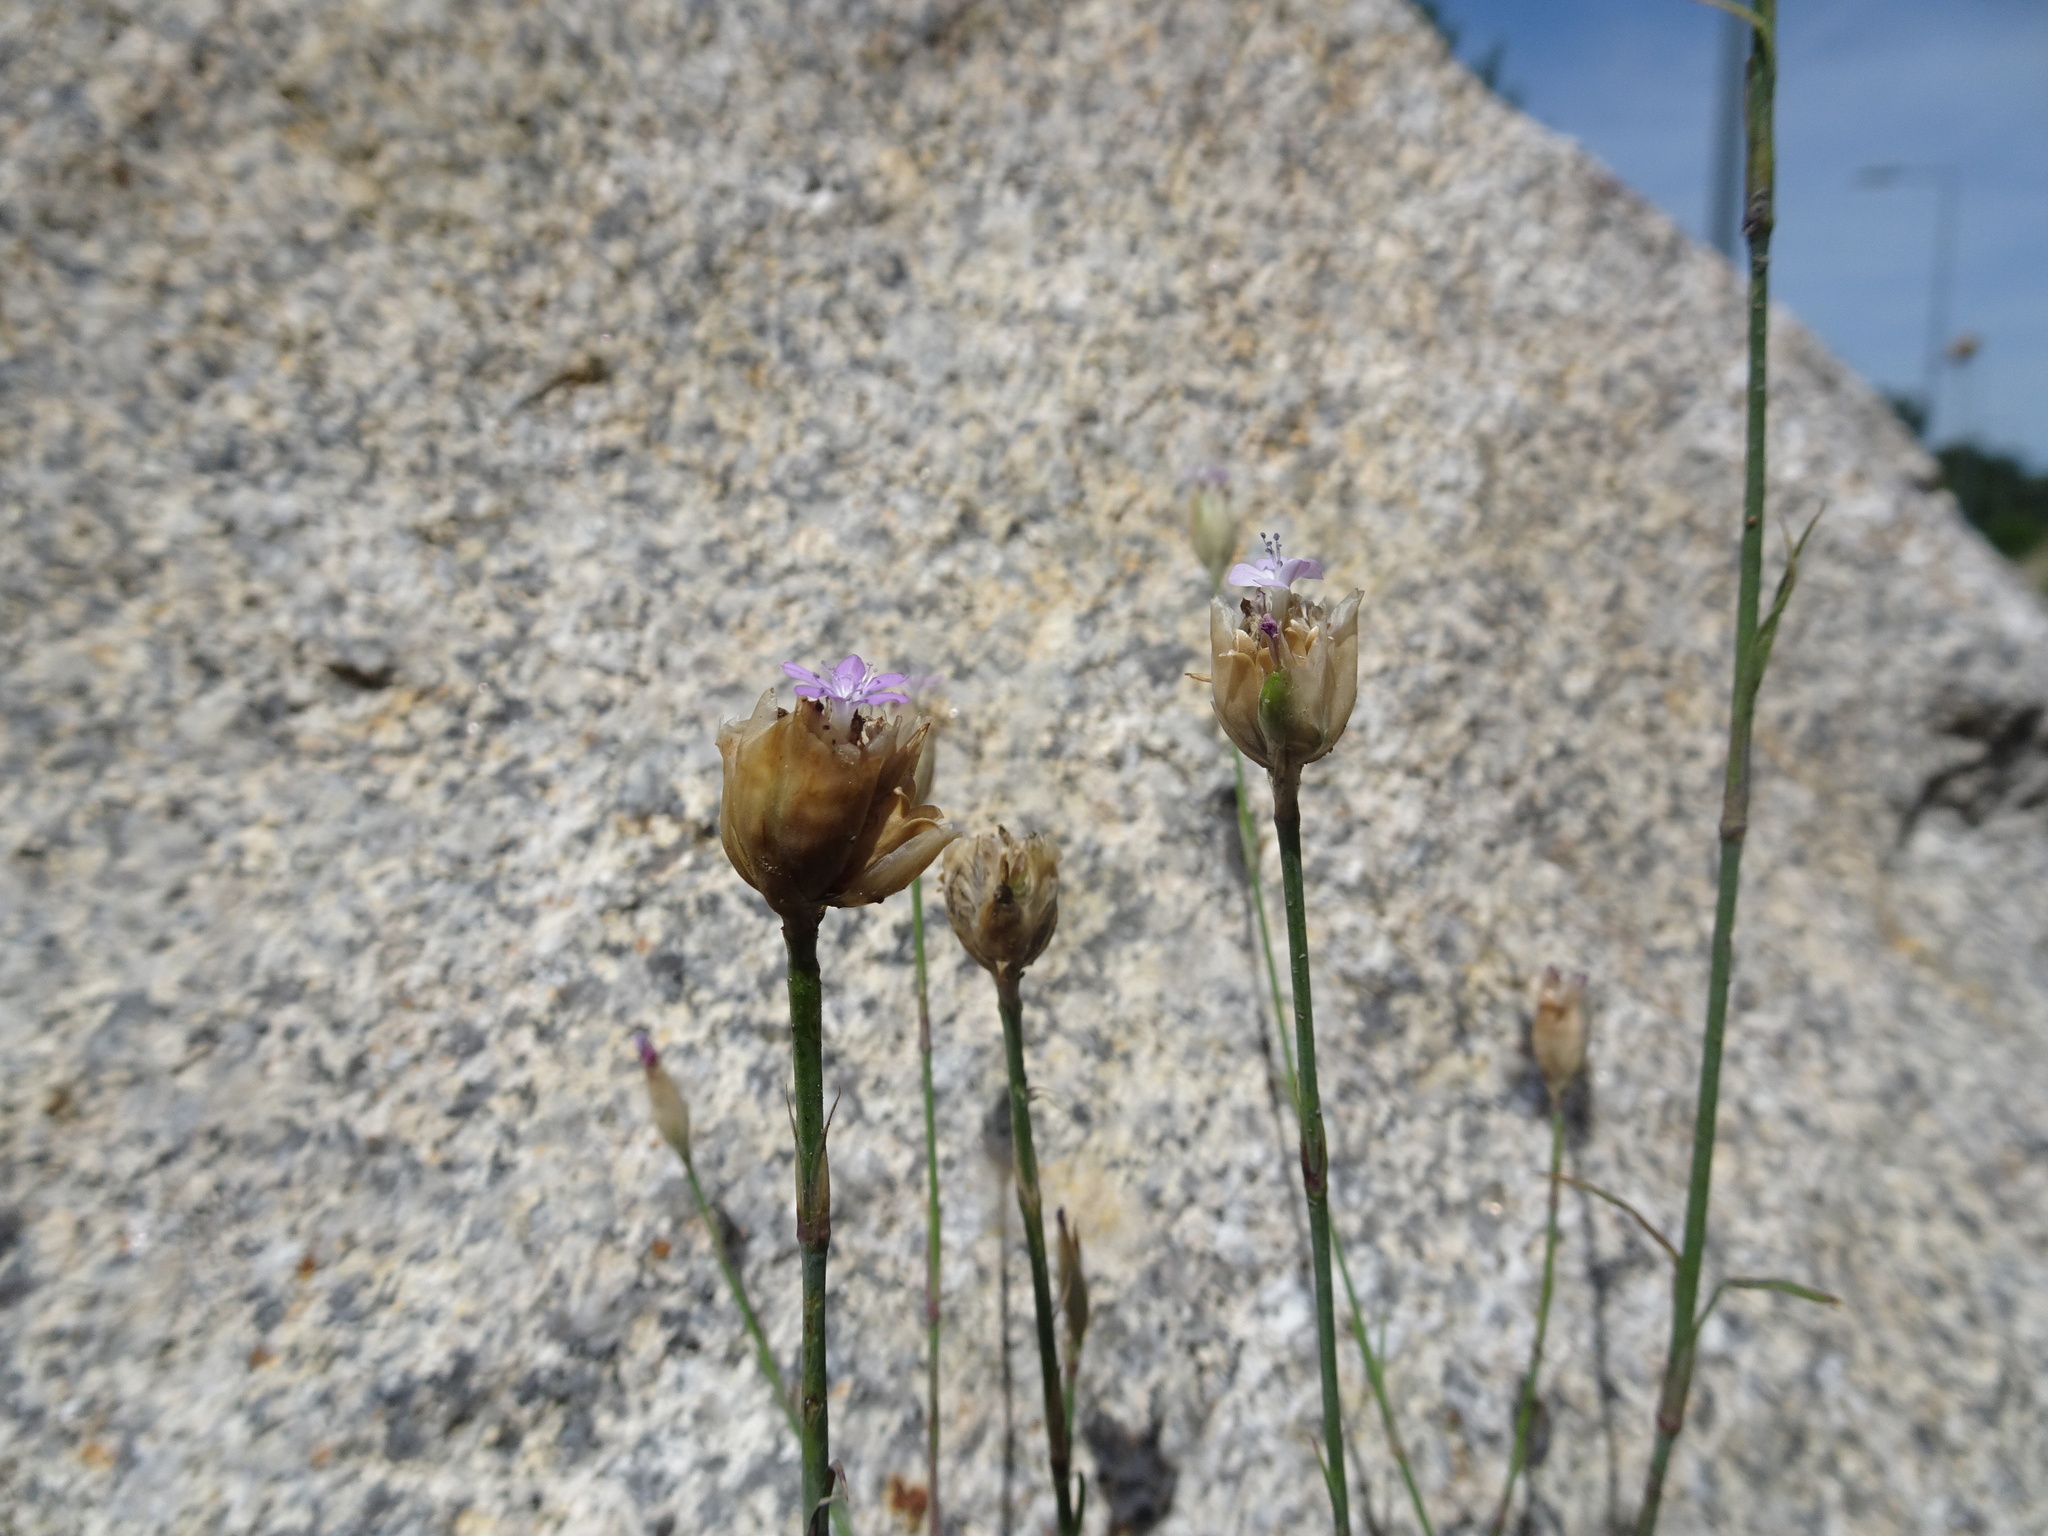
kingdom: Plantae
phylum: Tracheophyta
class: Magnoliopsida
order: Caryophyllales
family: Caryophyllaceae
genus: Petrorhagia
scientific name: Petrorhagia prolifera
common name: Proliferous pink
